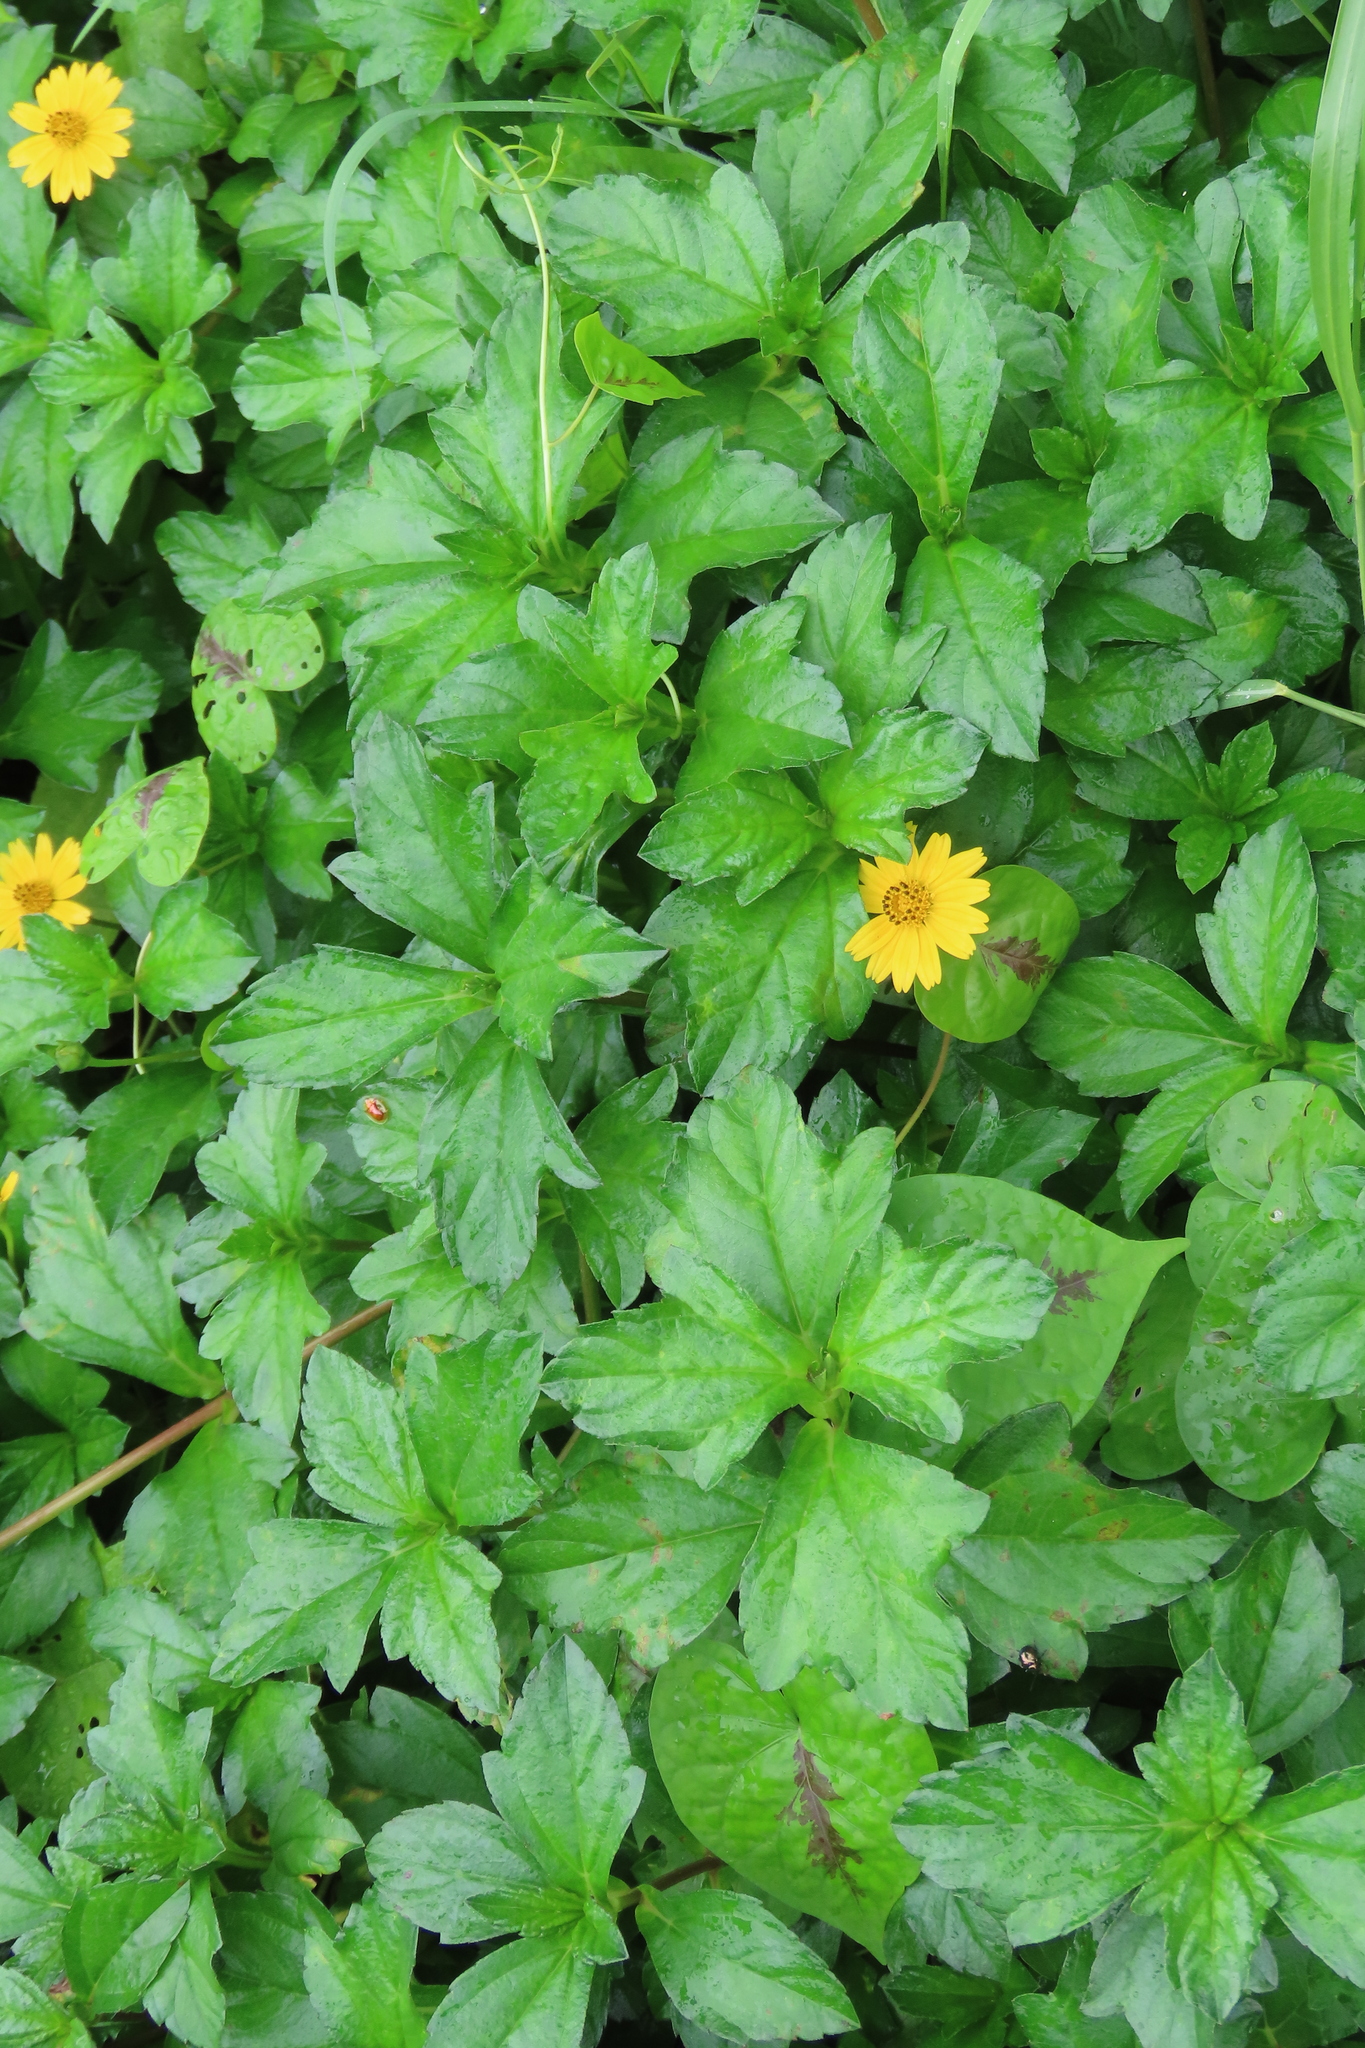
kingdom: Plantae
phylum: Tracheophyta
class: Magnoliopsida
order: Asterales
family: Asteraceae
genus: Sphagneticola
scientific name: Sphagneticola trilobata
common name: Bay biscayne creeping-oxeye
